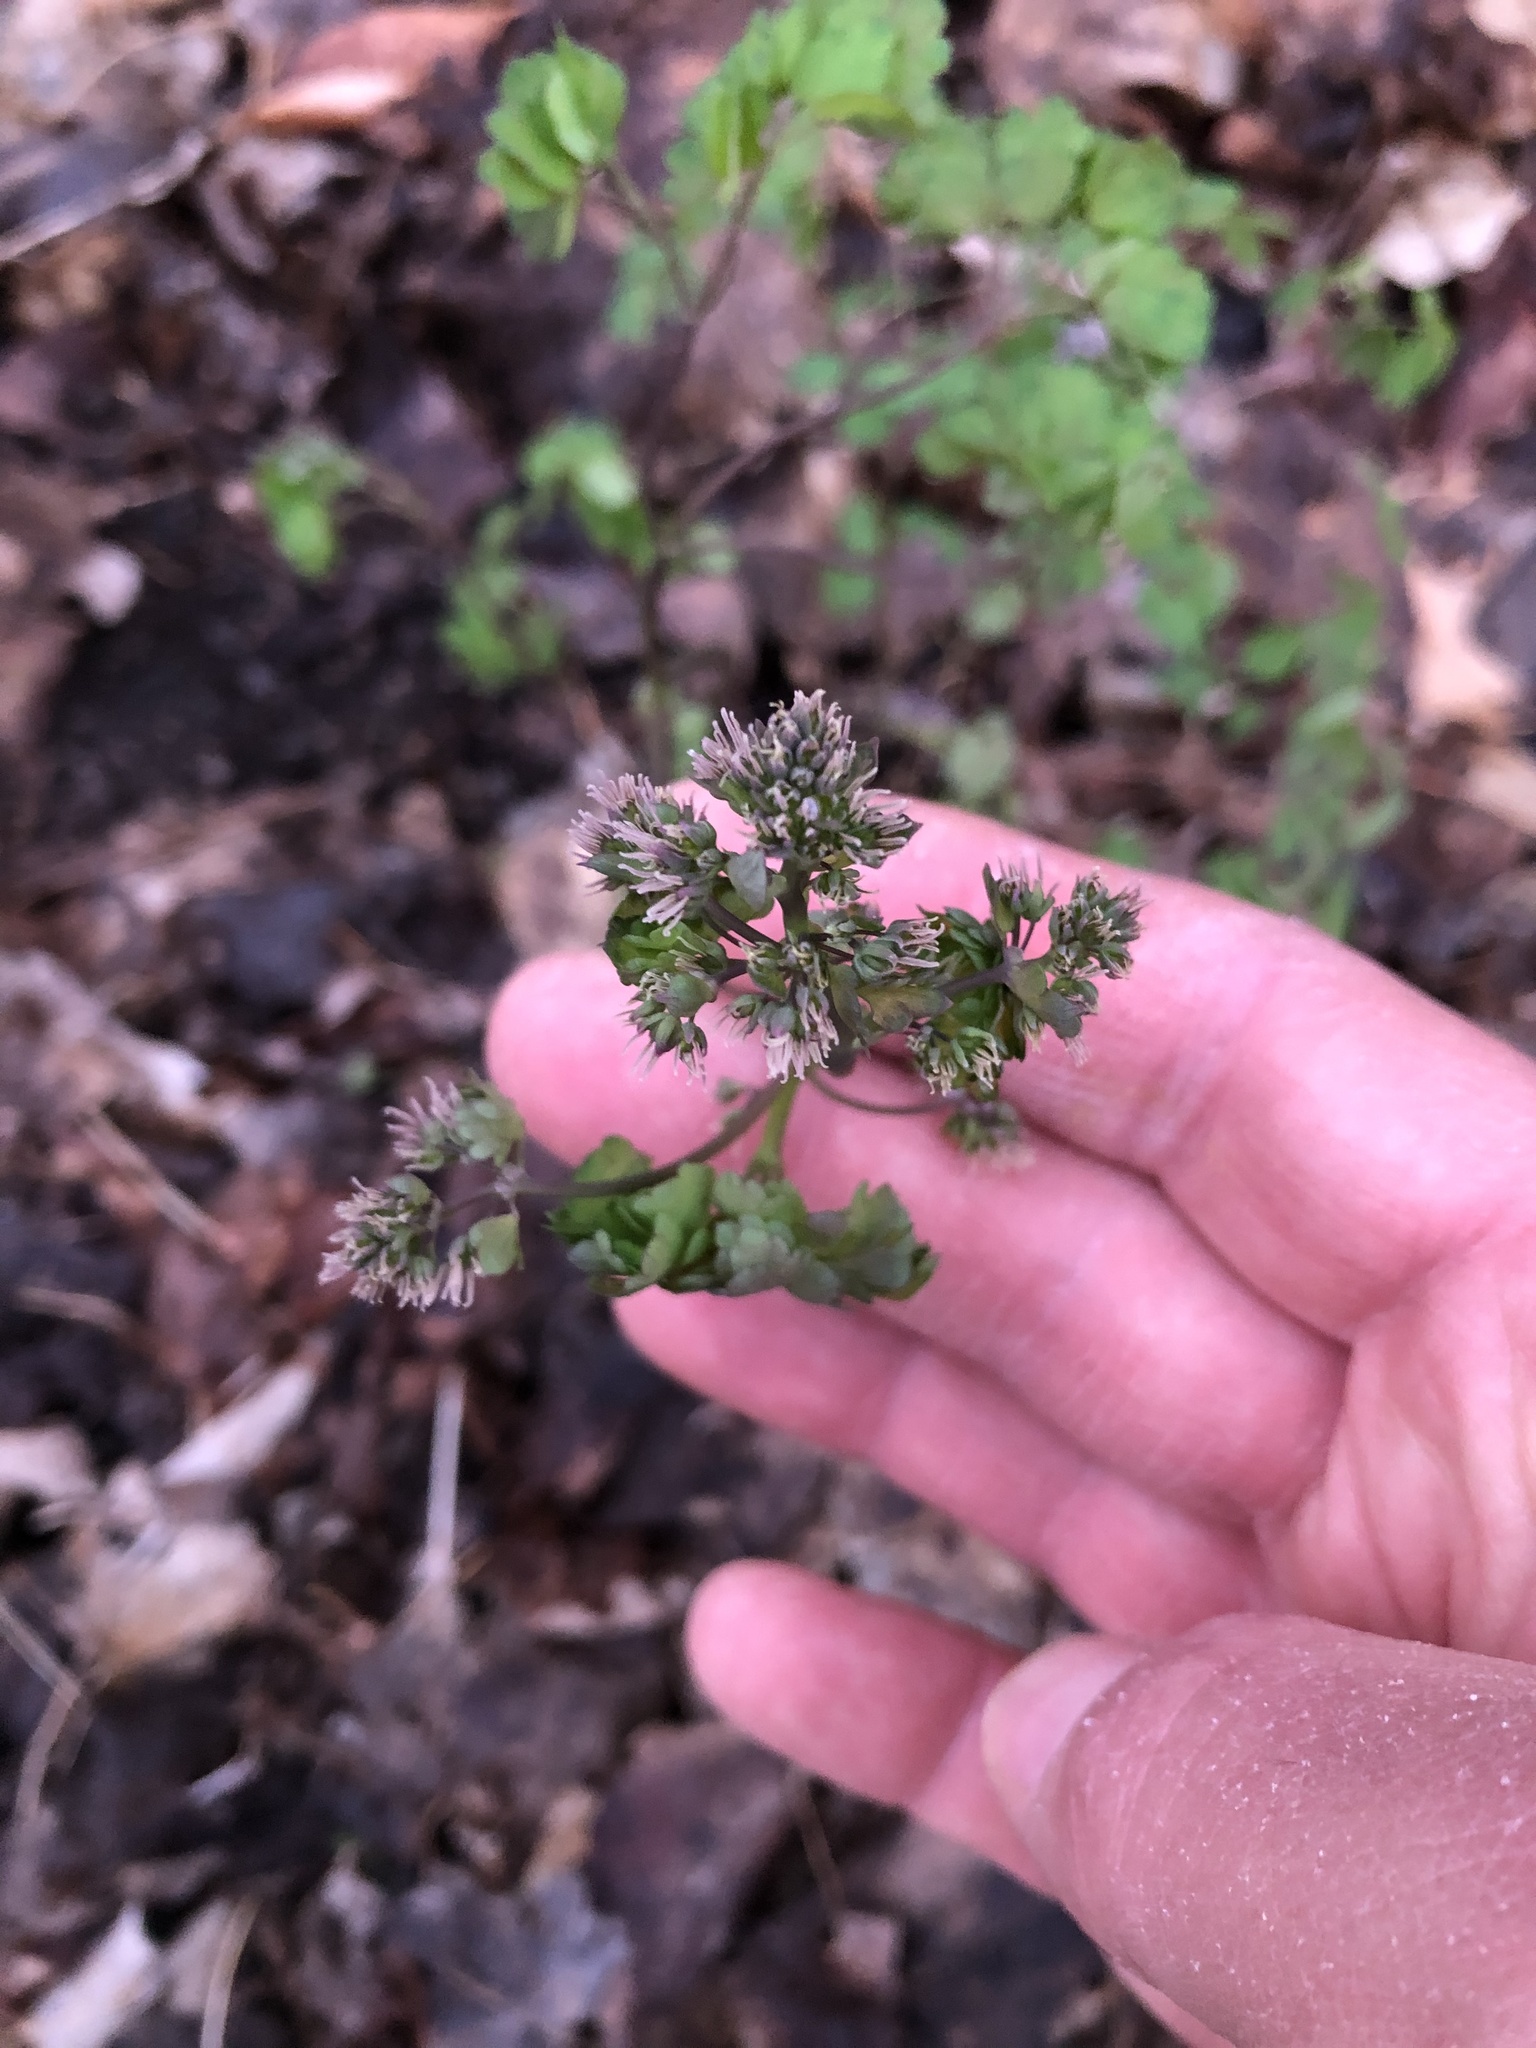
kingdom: Plantae
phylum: Tracheophyta
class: Magnoliopsida
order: Ranunculales
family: Ranunculaceae
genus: Thalictrum
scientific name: Thalictrum dioicum
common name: Early meadow-rue
